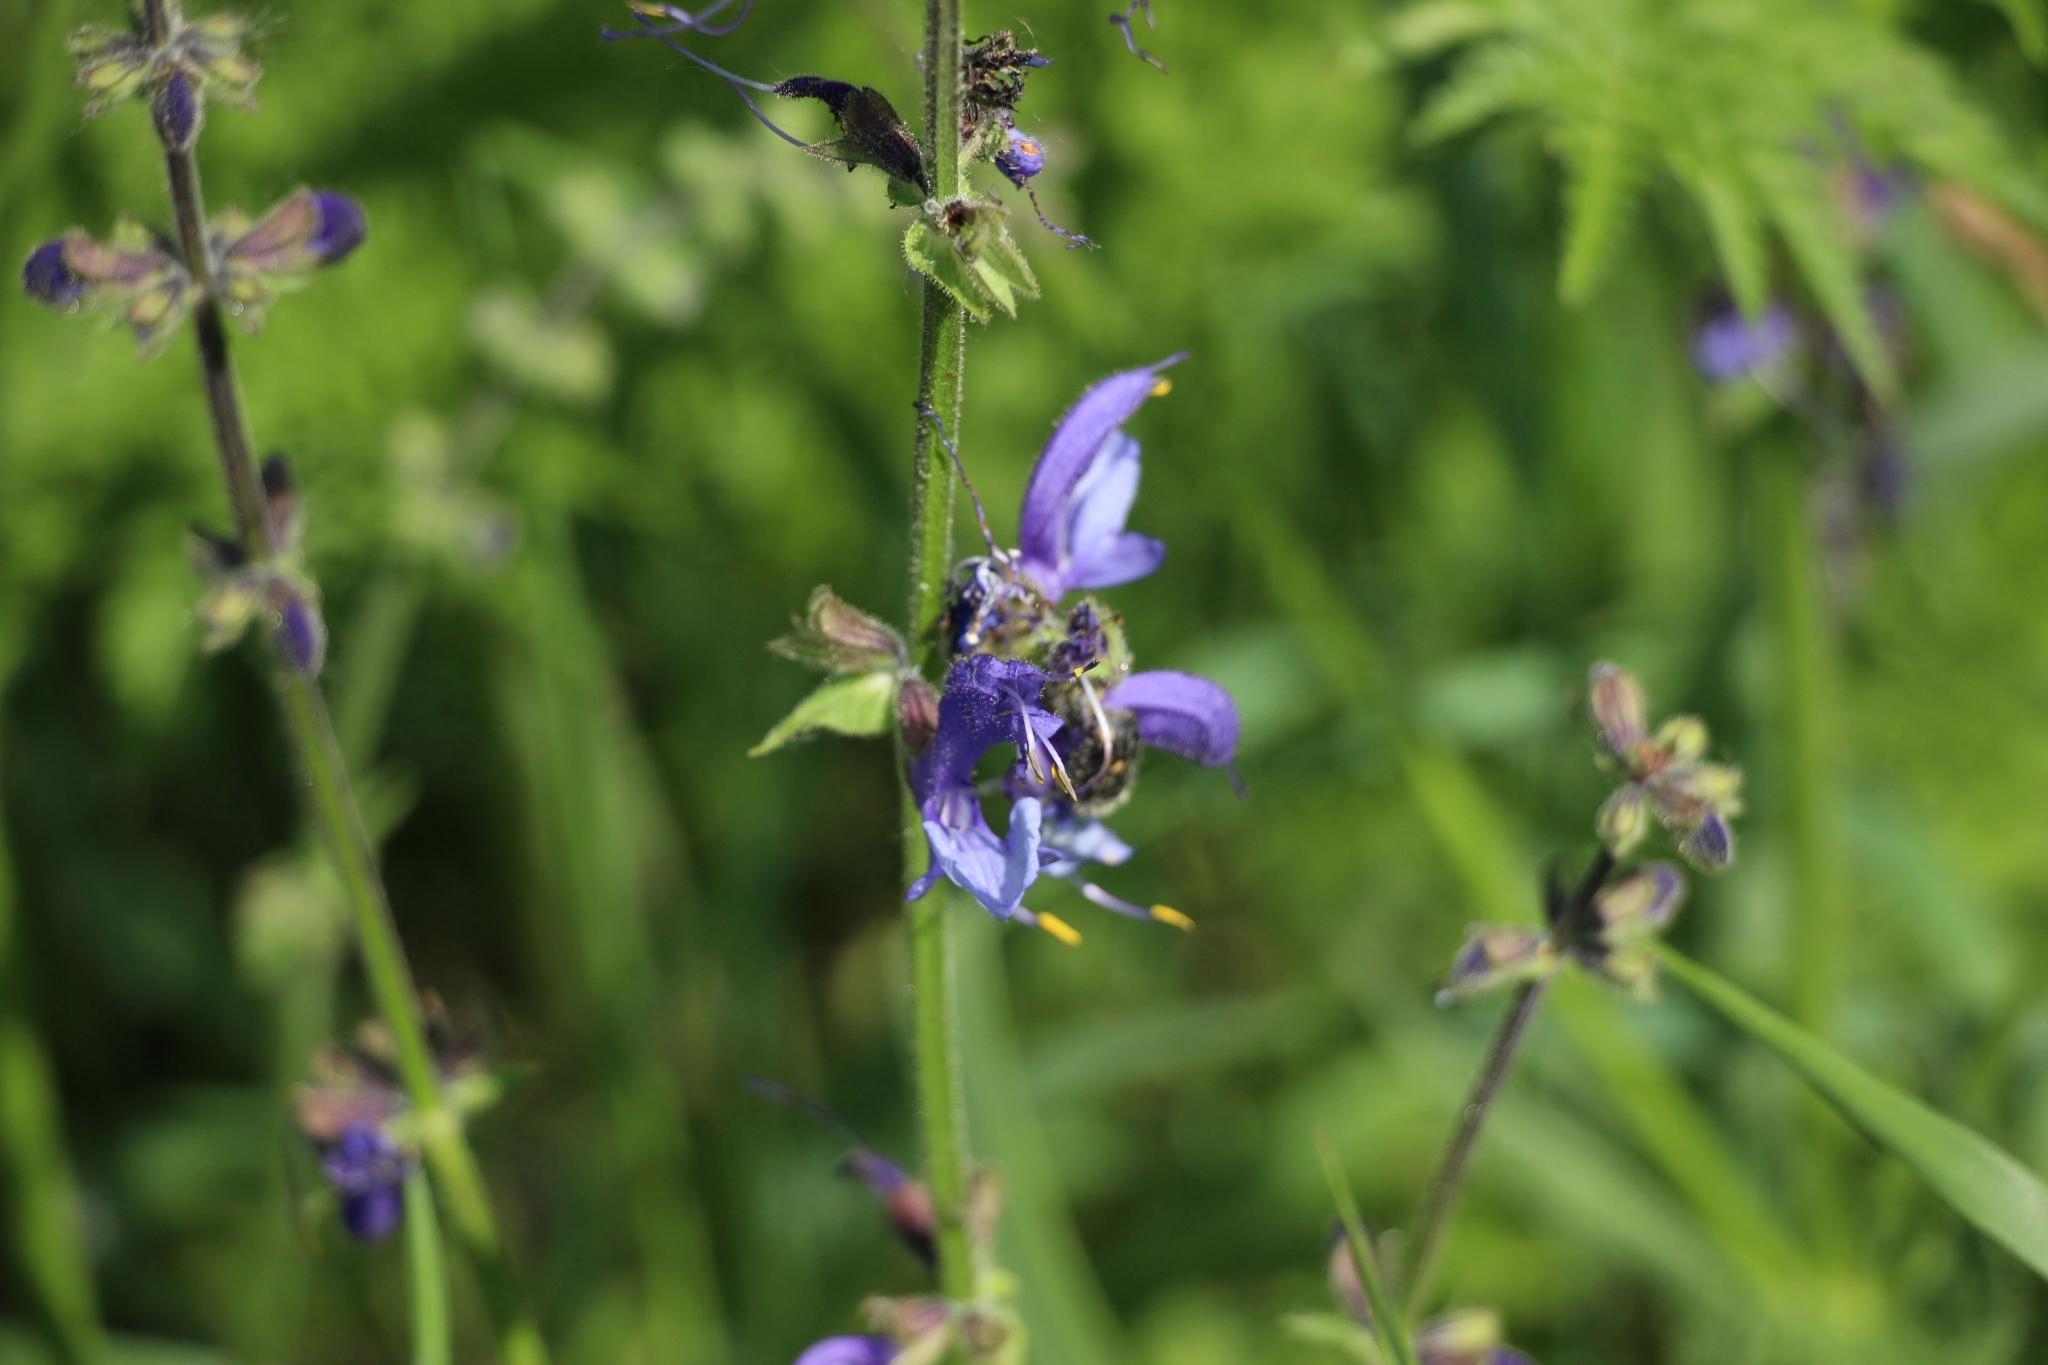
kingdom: Plantae
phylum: Tracheophyta
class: Magnoliopsida
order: Lamiales
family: Lamiaceae
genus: Salvia
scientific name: Salvia pratensis
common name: Meadow sage
